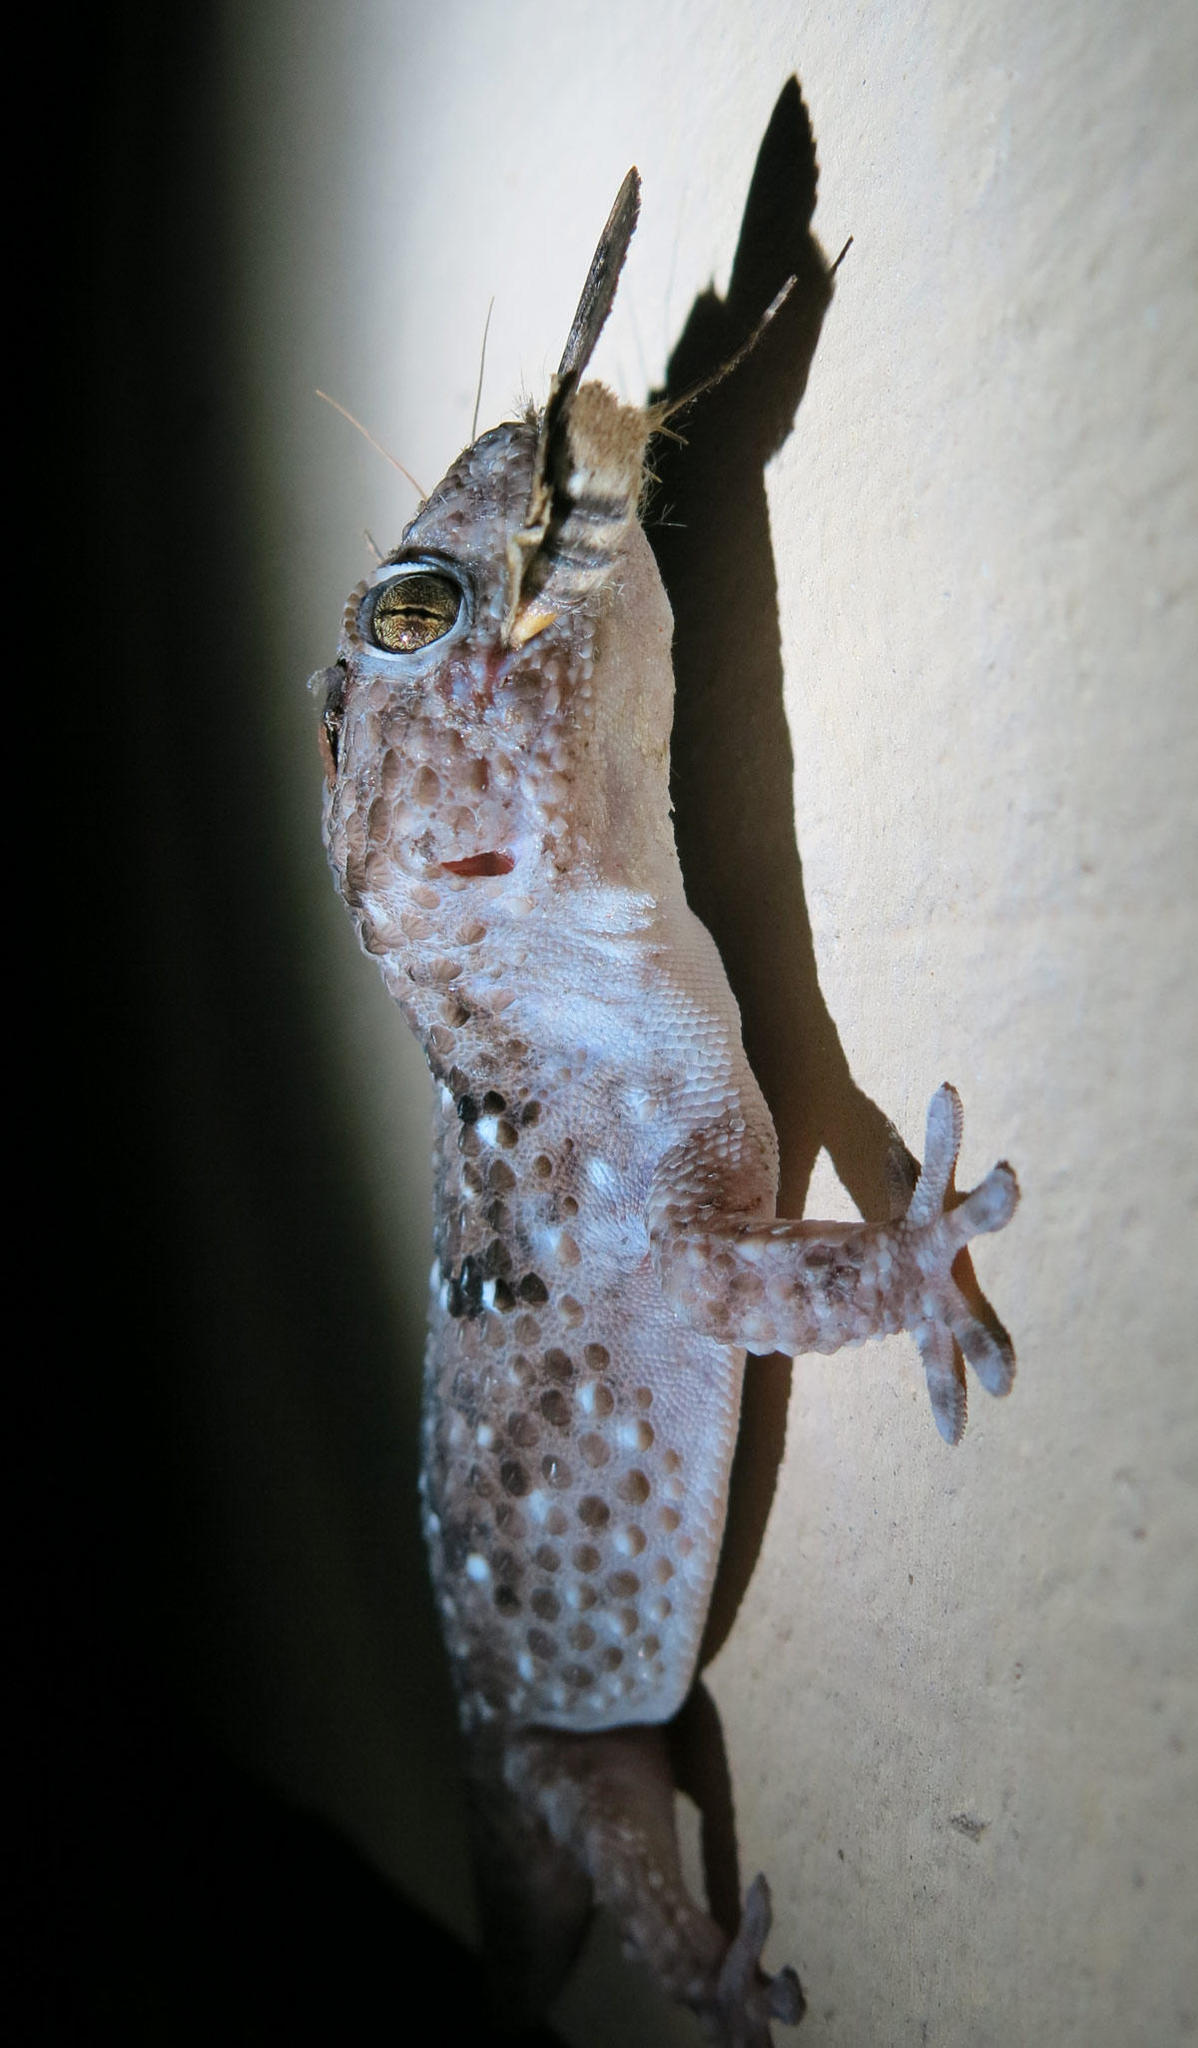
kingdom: Animalia
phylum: Chordata
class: Squamata
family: Gekkonidae
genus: Chondrodactylus
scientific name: Chondrodactylus turneri
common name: Turner’s gecko
